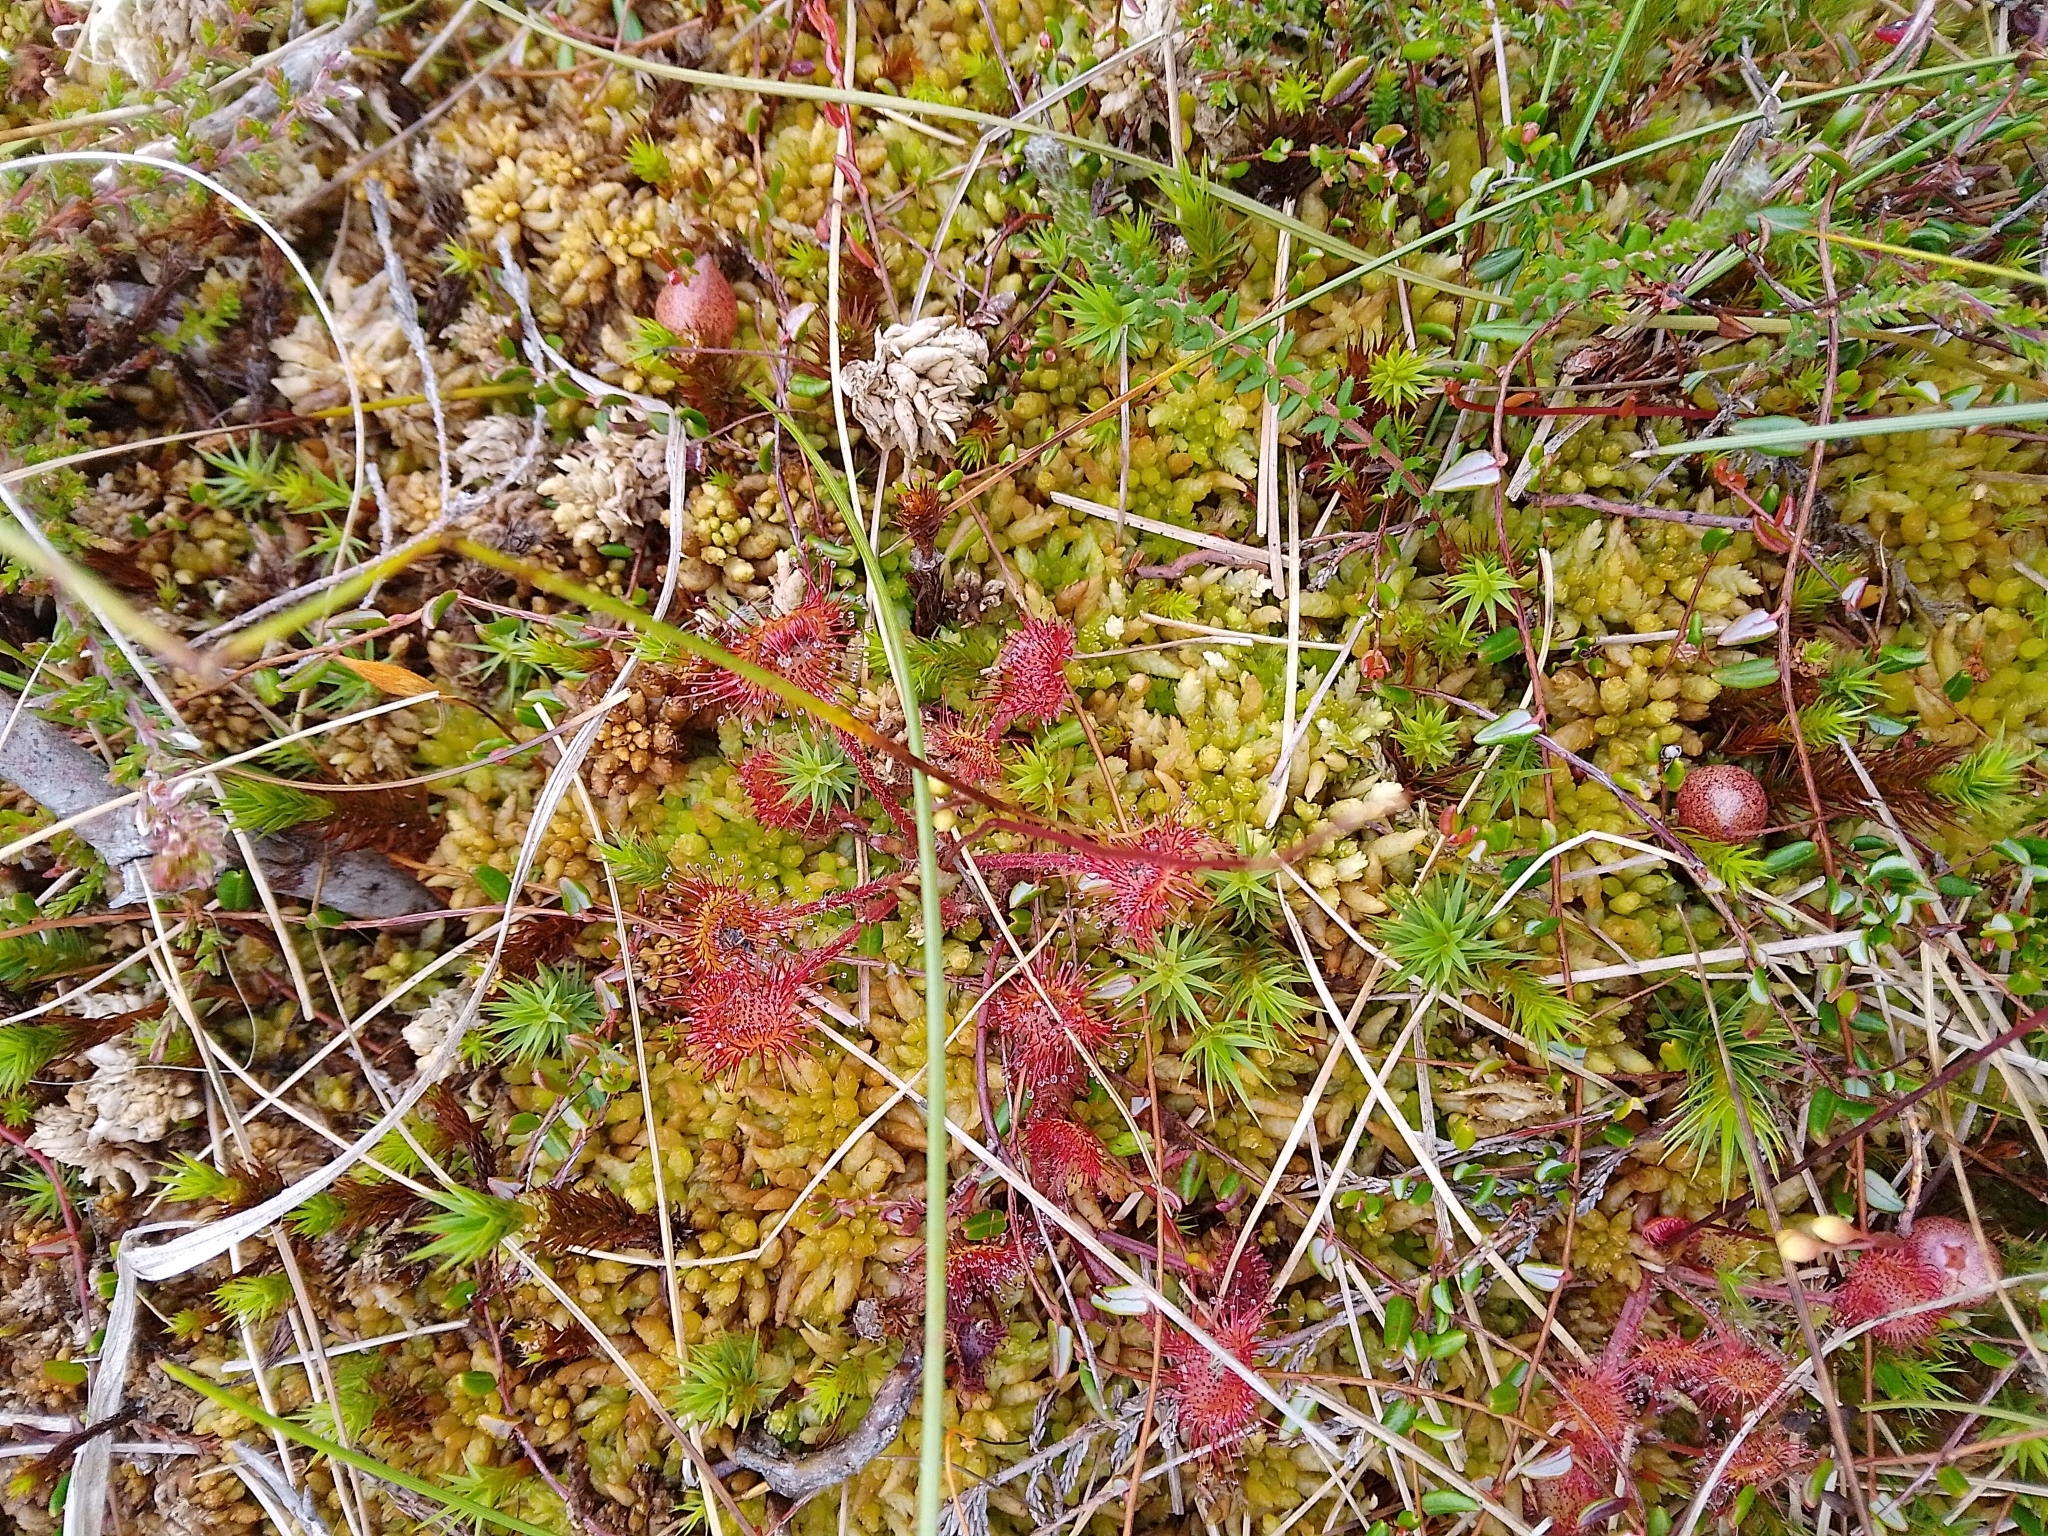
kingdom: Plantae
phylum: Tracheophyta
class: Magnoliopsida
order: Caryophyllales
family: Droseraceae
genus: Drosera
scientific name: Drosera rotundifolia
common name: Round-leaved sundew
